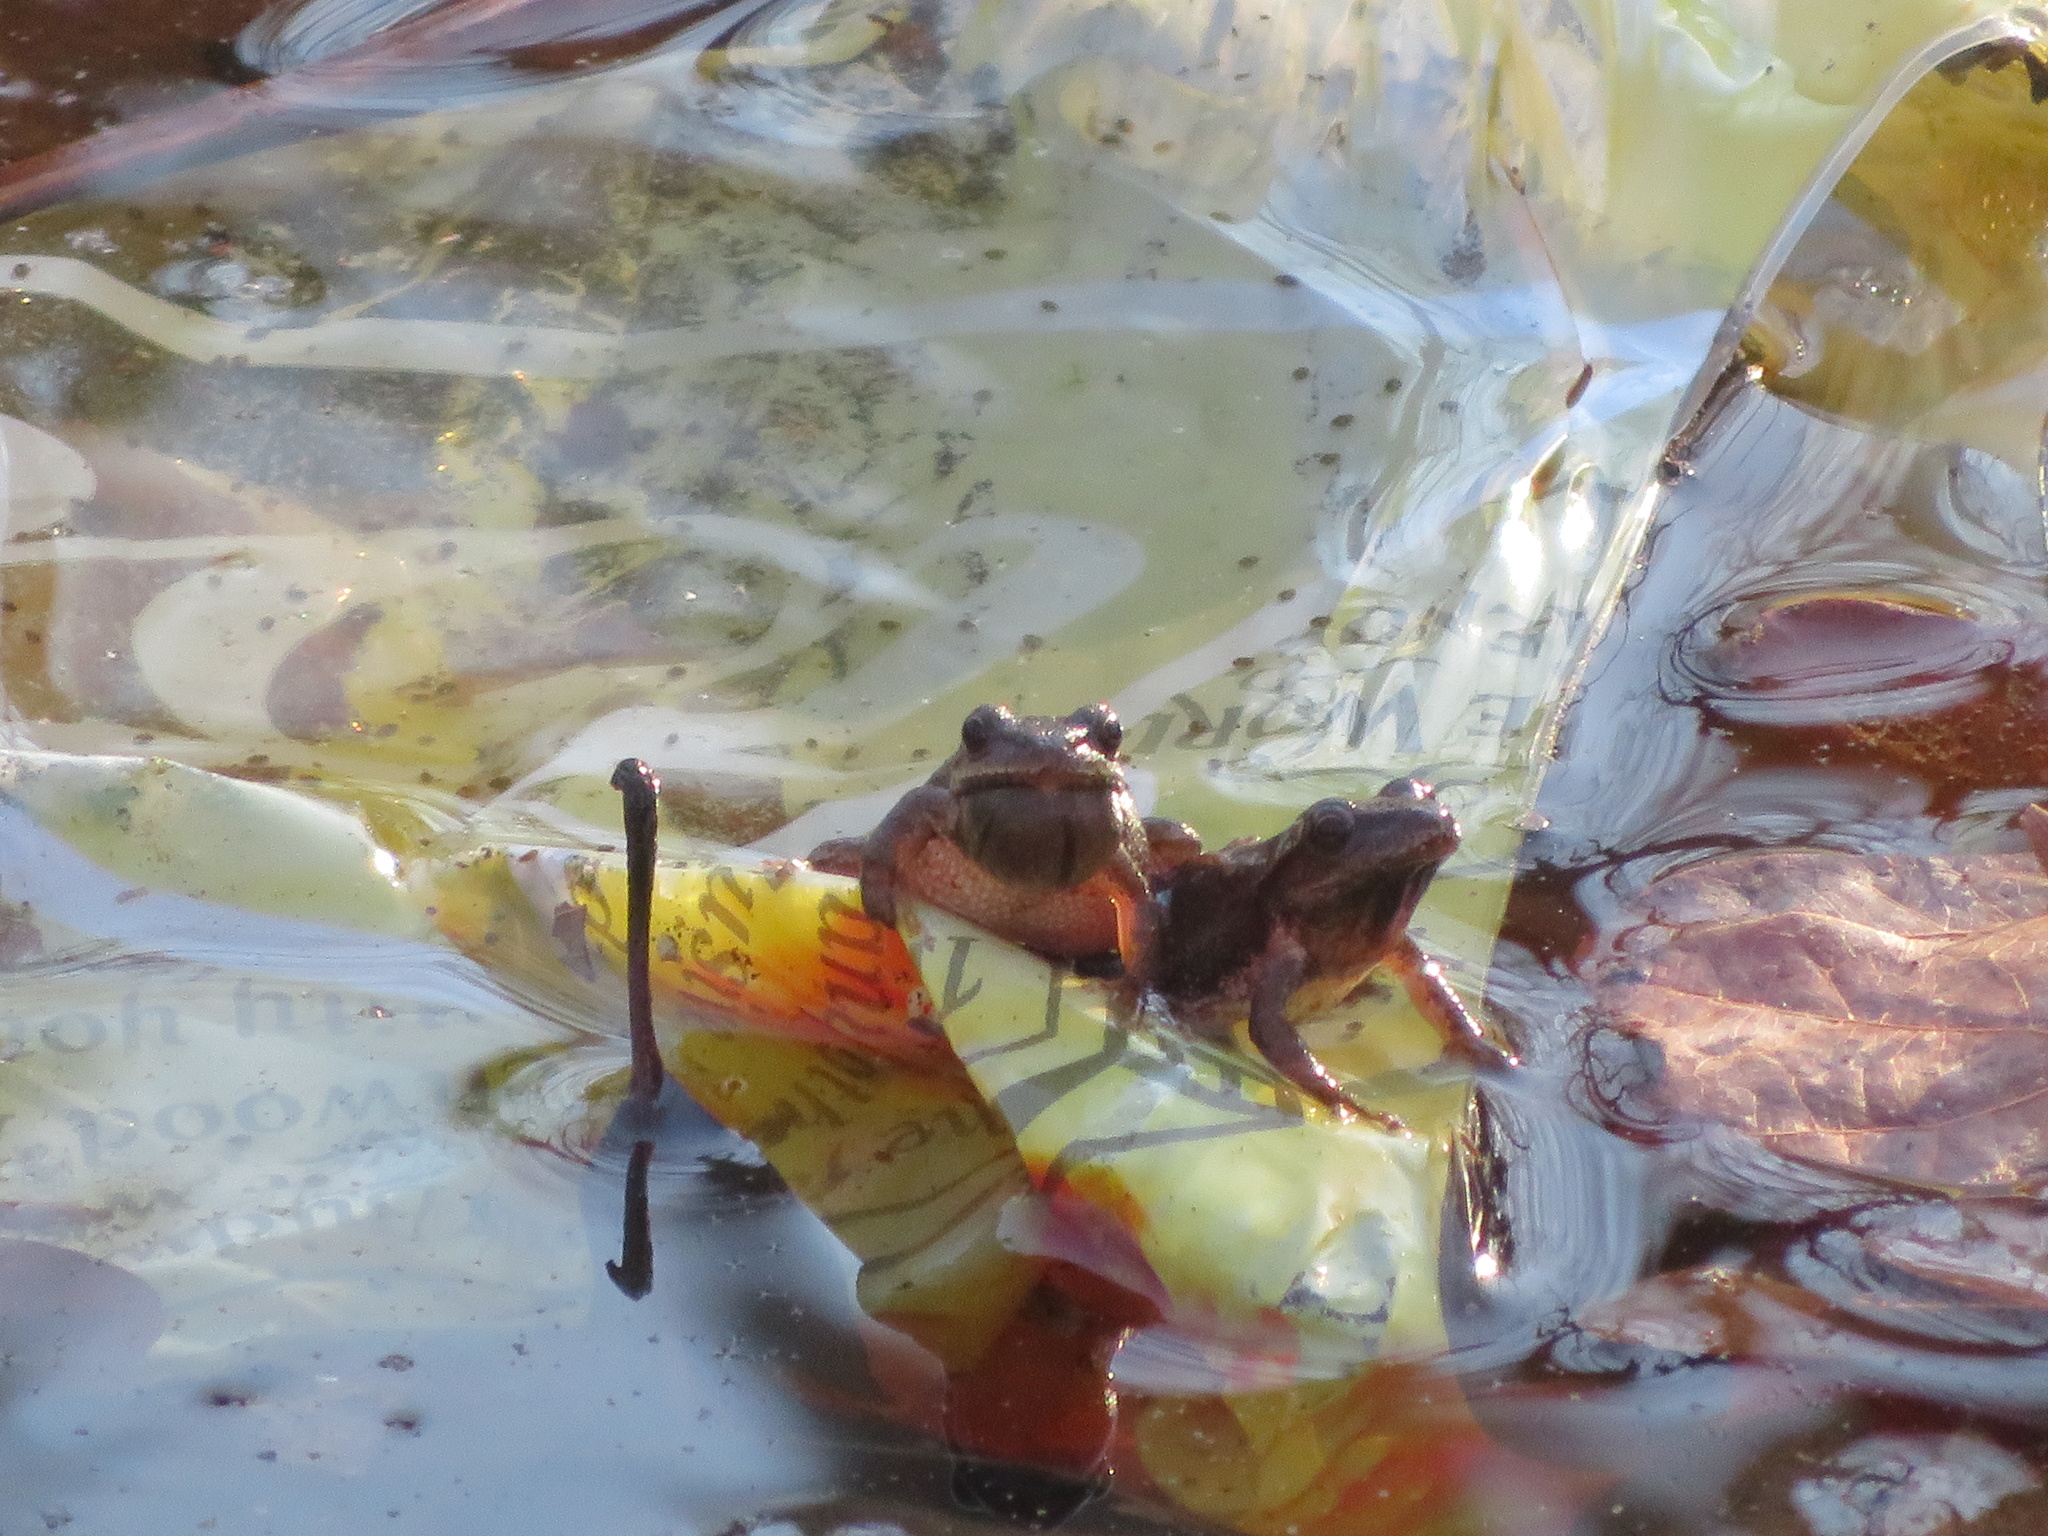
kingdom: Animalia
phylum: Chordata
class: Amphibia
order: Anura
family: Hylidae
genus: Pseudacris
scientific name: Pseudacris crucifer
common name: Spring peeper
